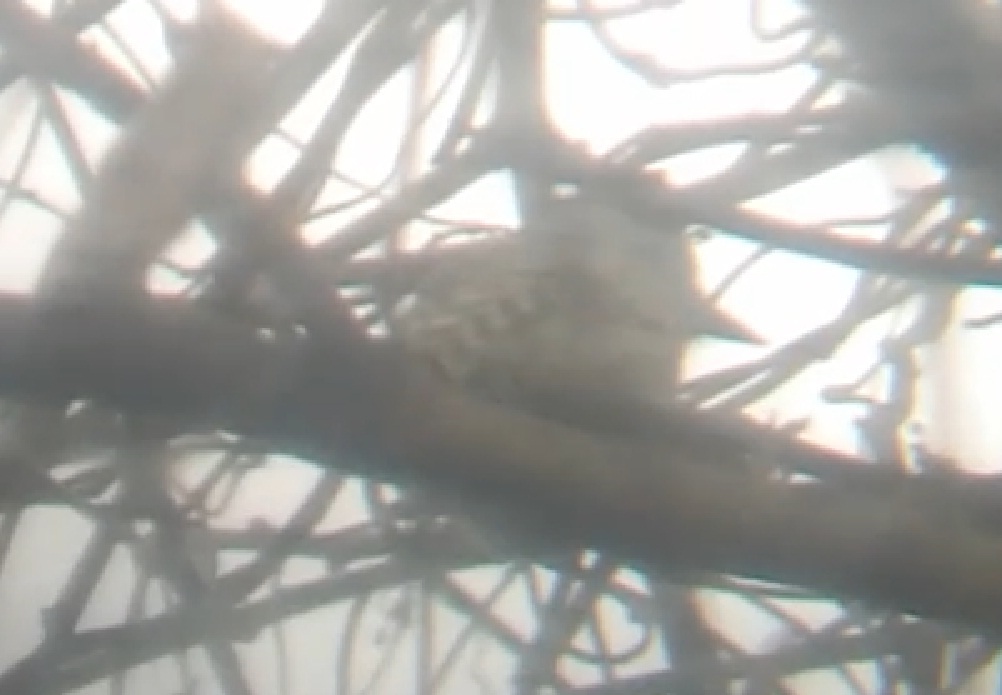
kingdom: Animalia
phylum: Chordata
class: Aves
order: Piciformes
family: Picidae
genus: Veniliornis
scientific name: Veniliornis mixtus
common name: Checkered woodpecker
